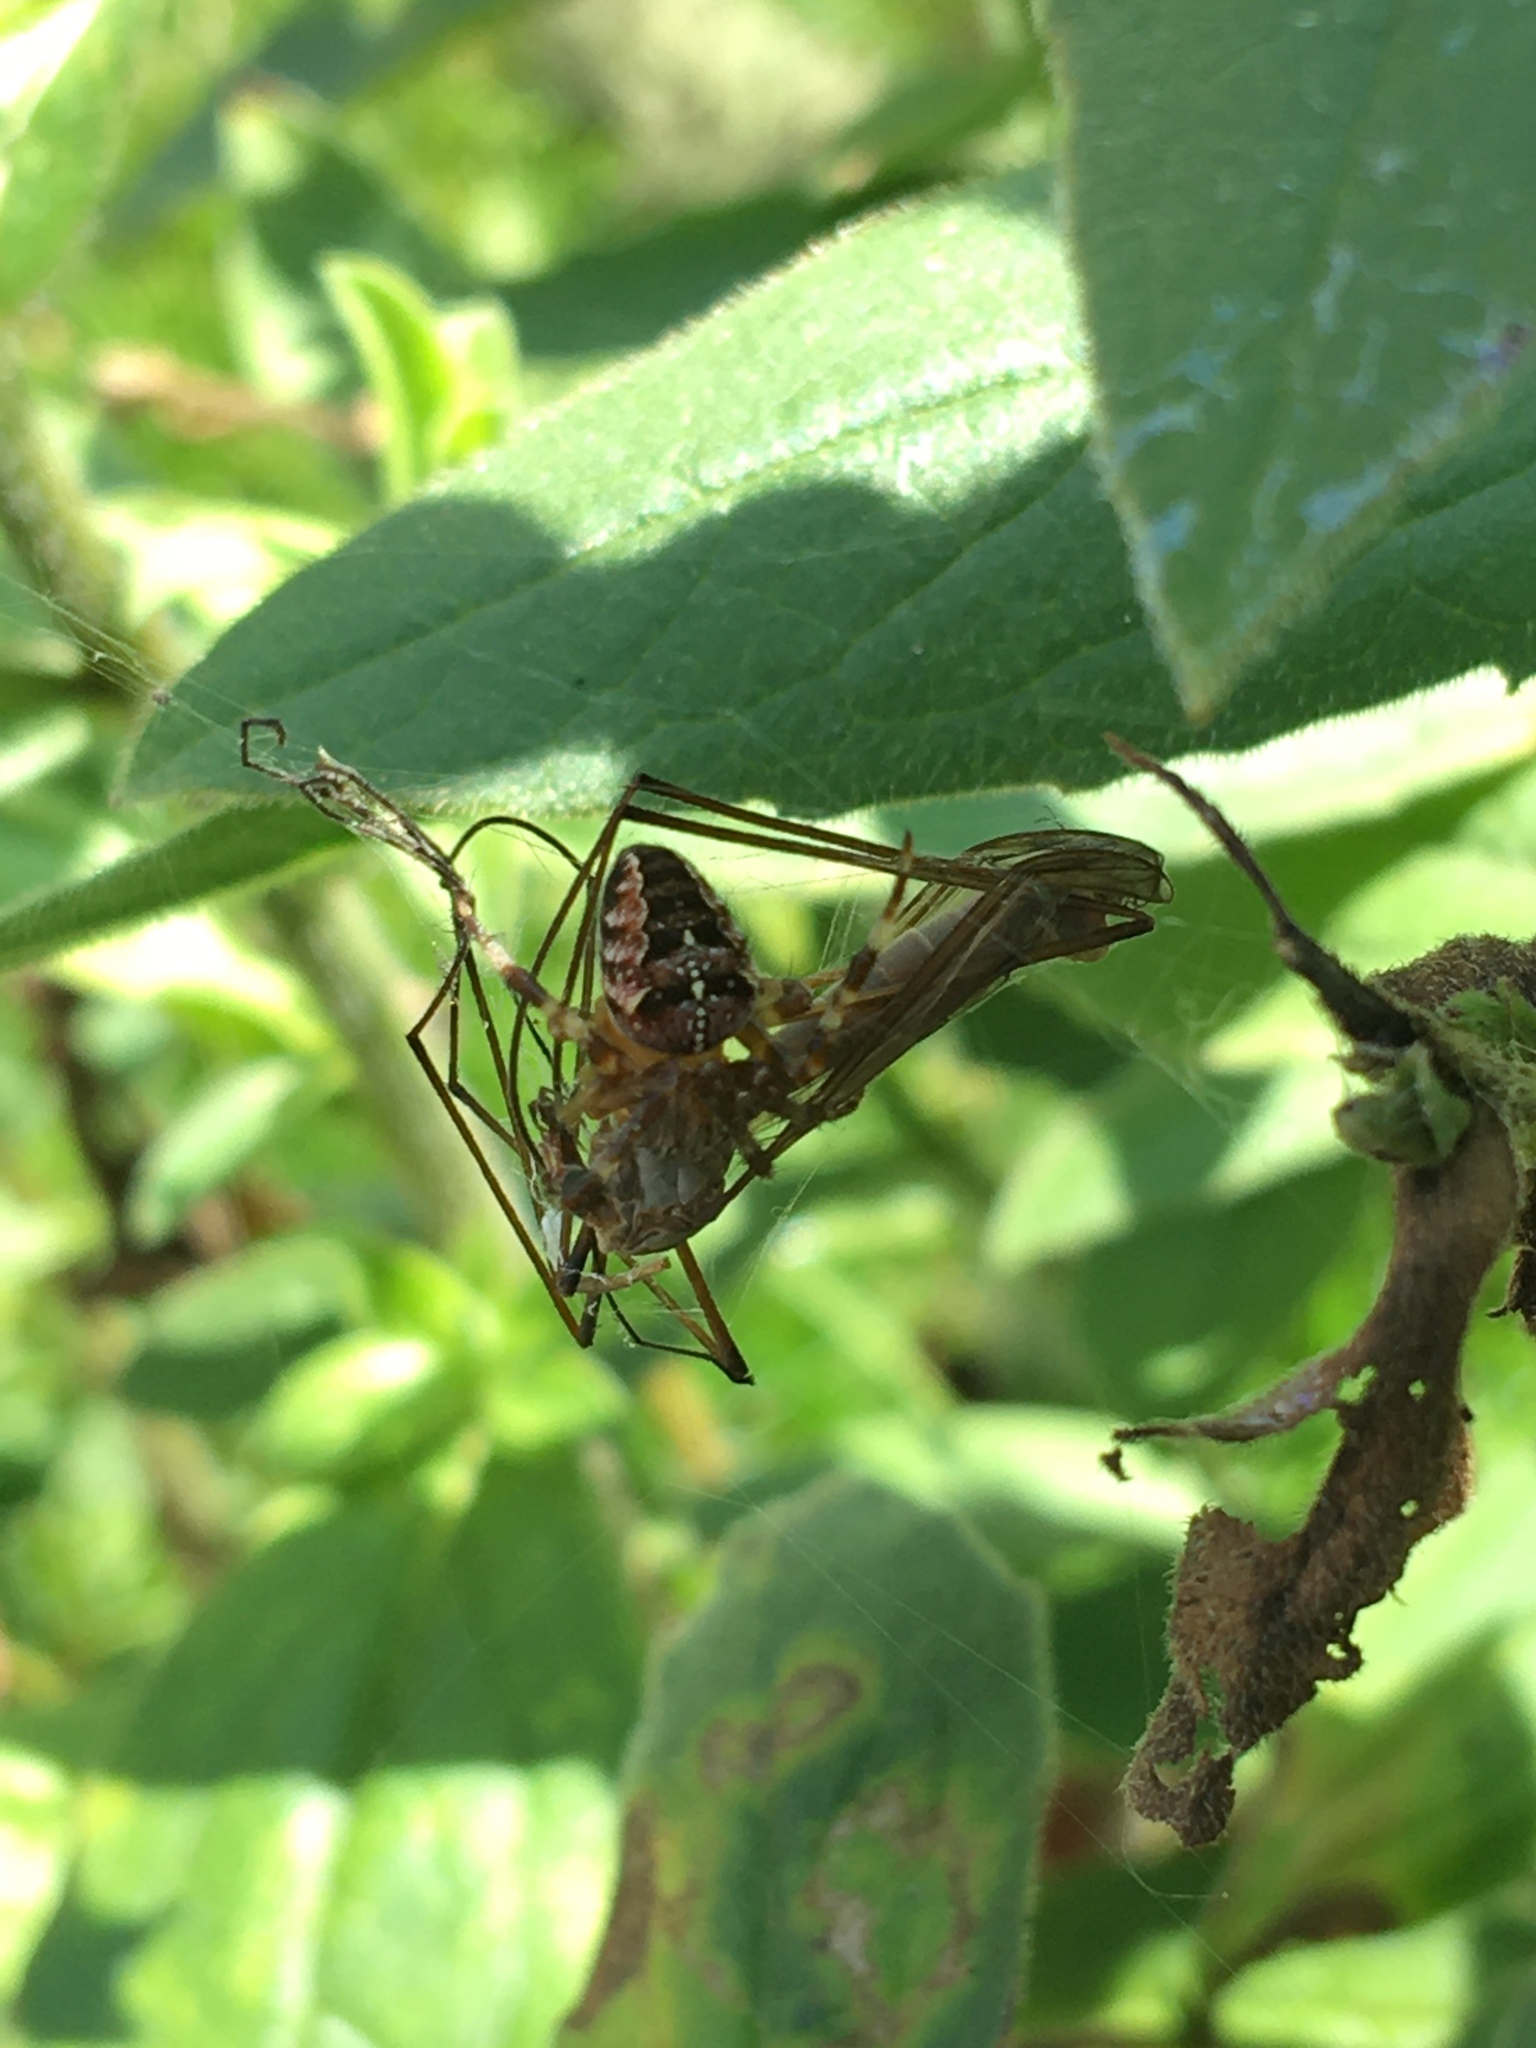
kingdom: Animalia
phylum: Arthropoda
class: Arachnida
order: Araneae
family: Araneidae
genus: Araneus
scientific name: Araneus diadematus
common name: Cross orbweaver
